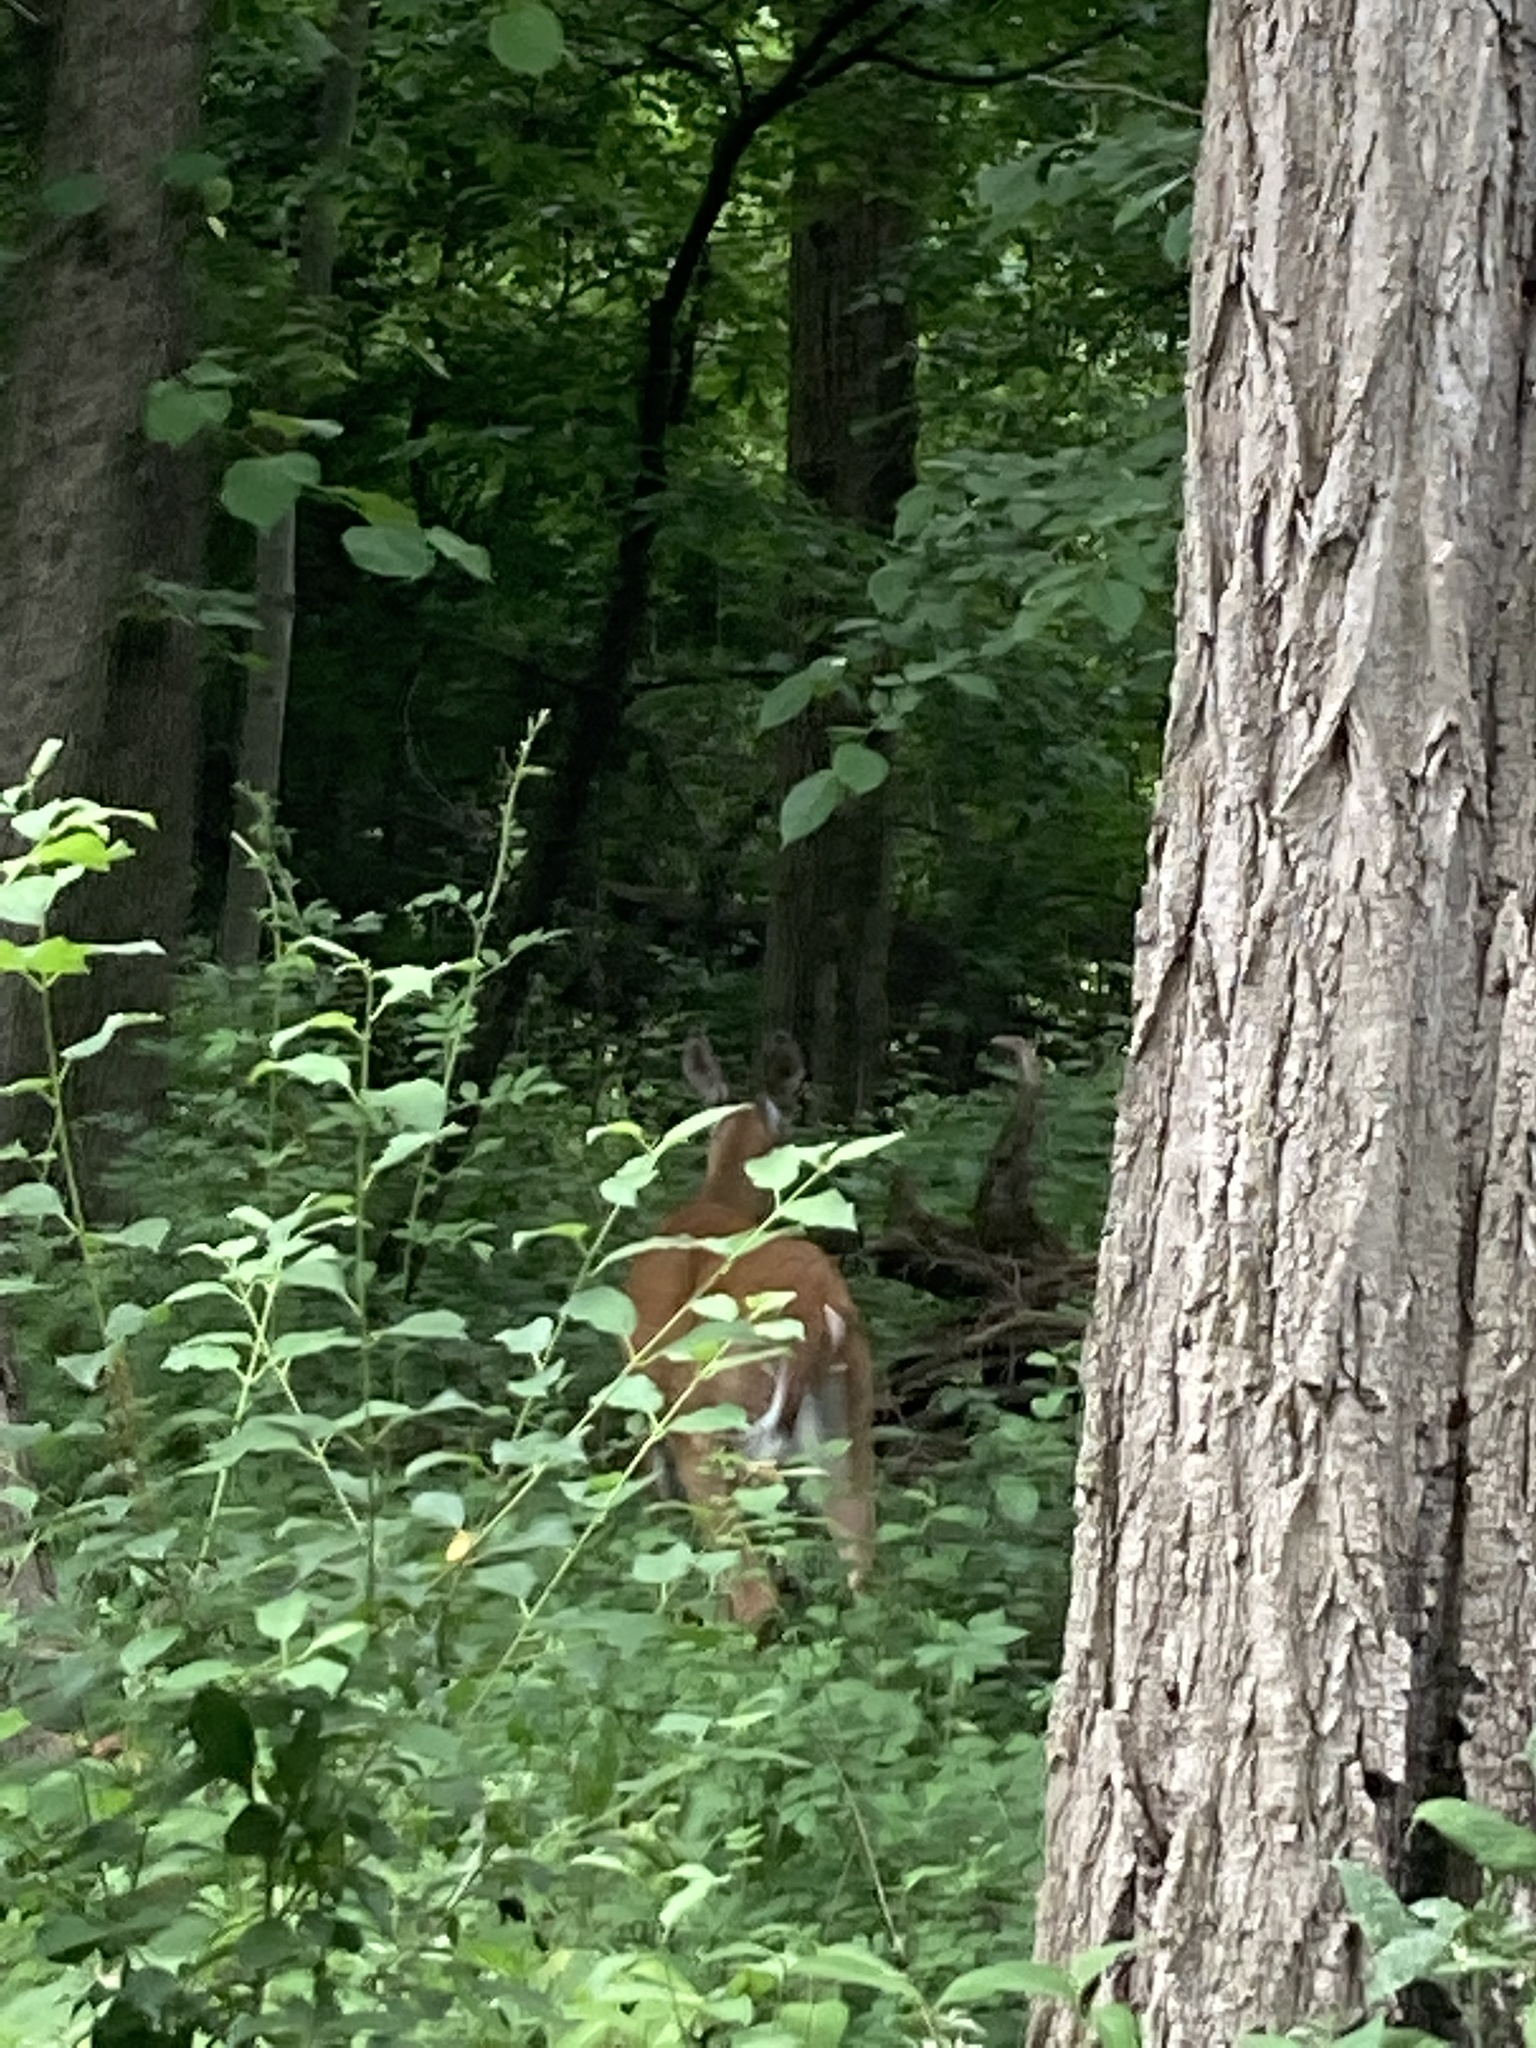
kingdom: Animalia
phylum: Chordata
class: Mammalia
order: Artiodactyla
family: Cervidae
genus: Odocoileus
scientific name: Odocoileus virginianus
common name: White-tailed deer
